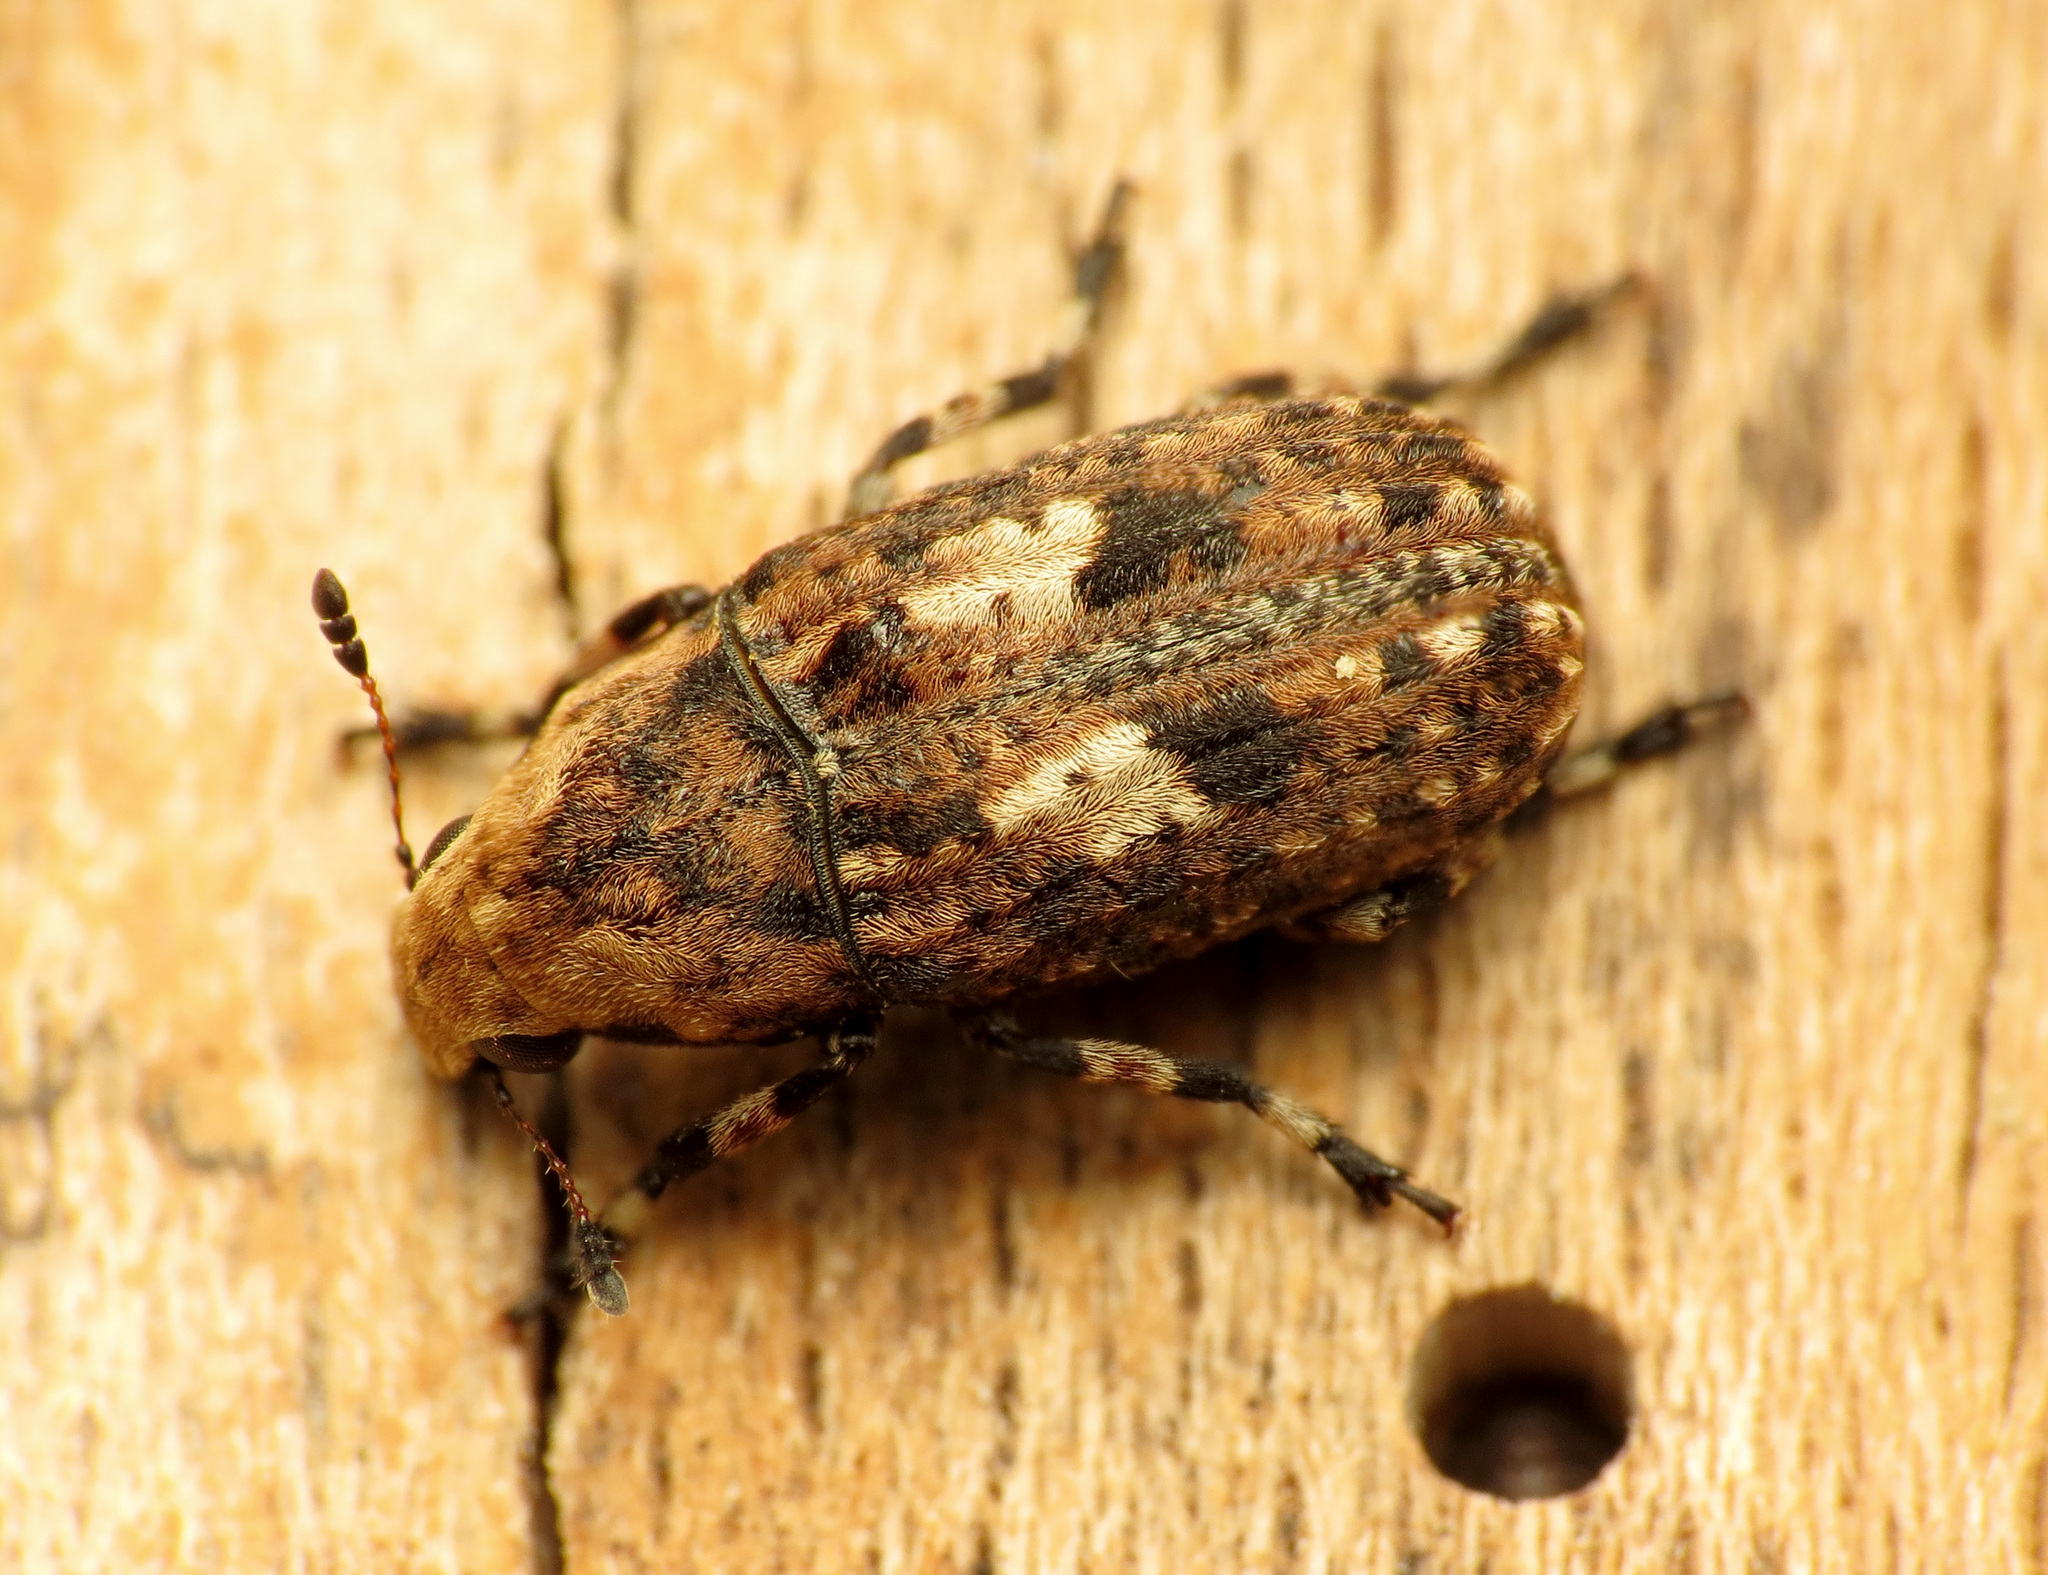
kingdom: Animalia
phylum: Arthropoda
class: Insecta
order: Coleoptera
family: Anthribidae
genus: Euparius
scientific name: Euparius marmoreus
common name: Marbled fungus weevil
